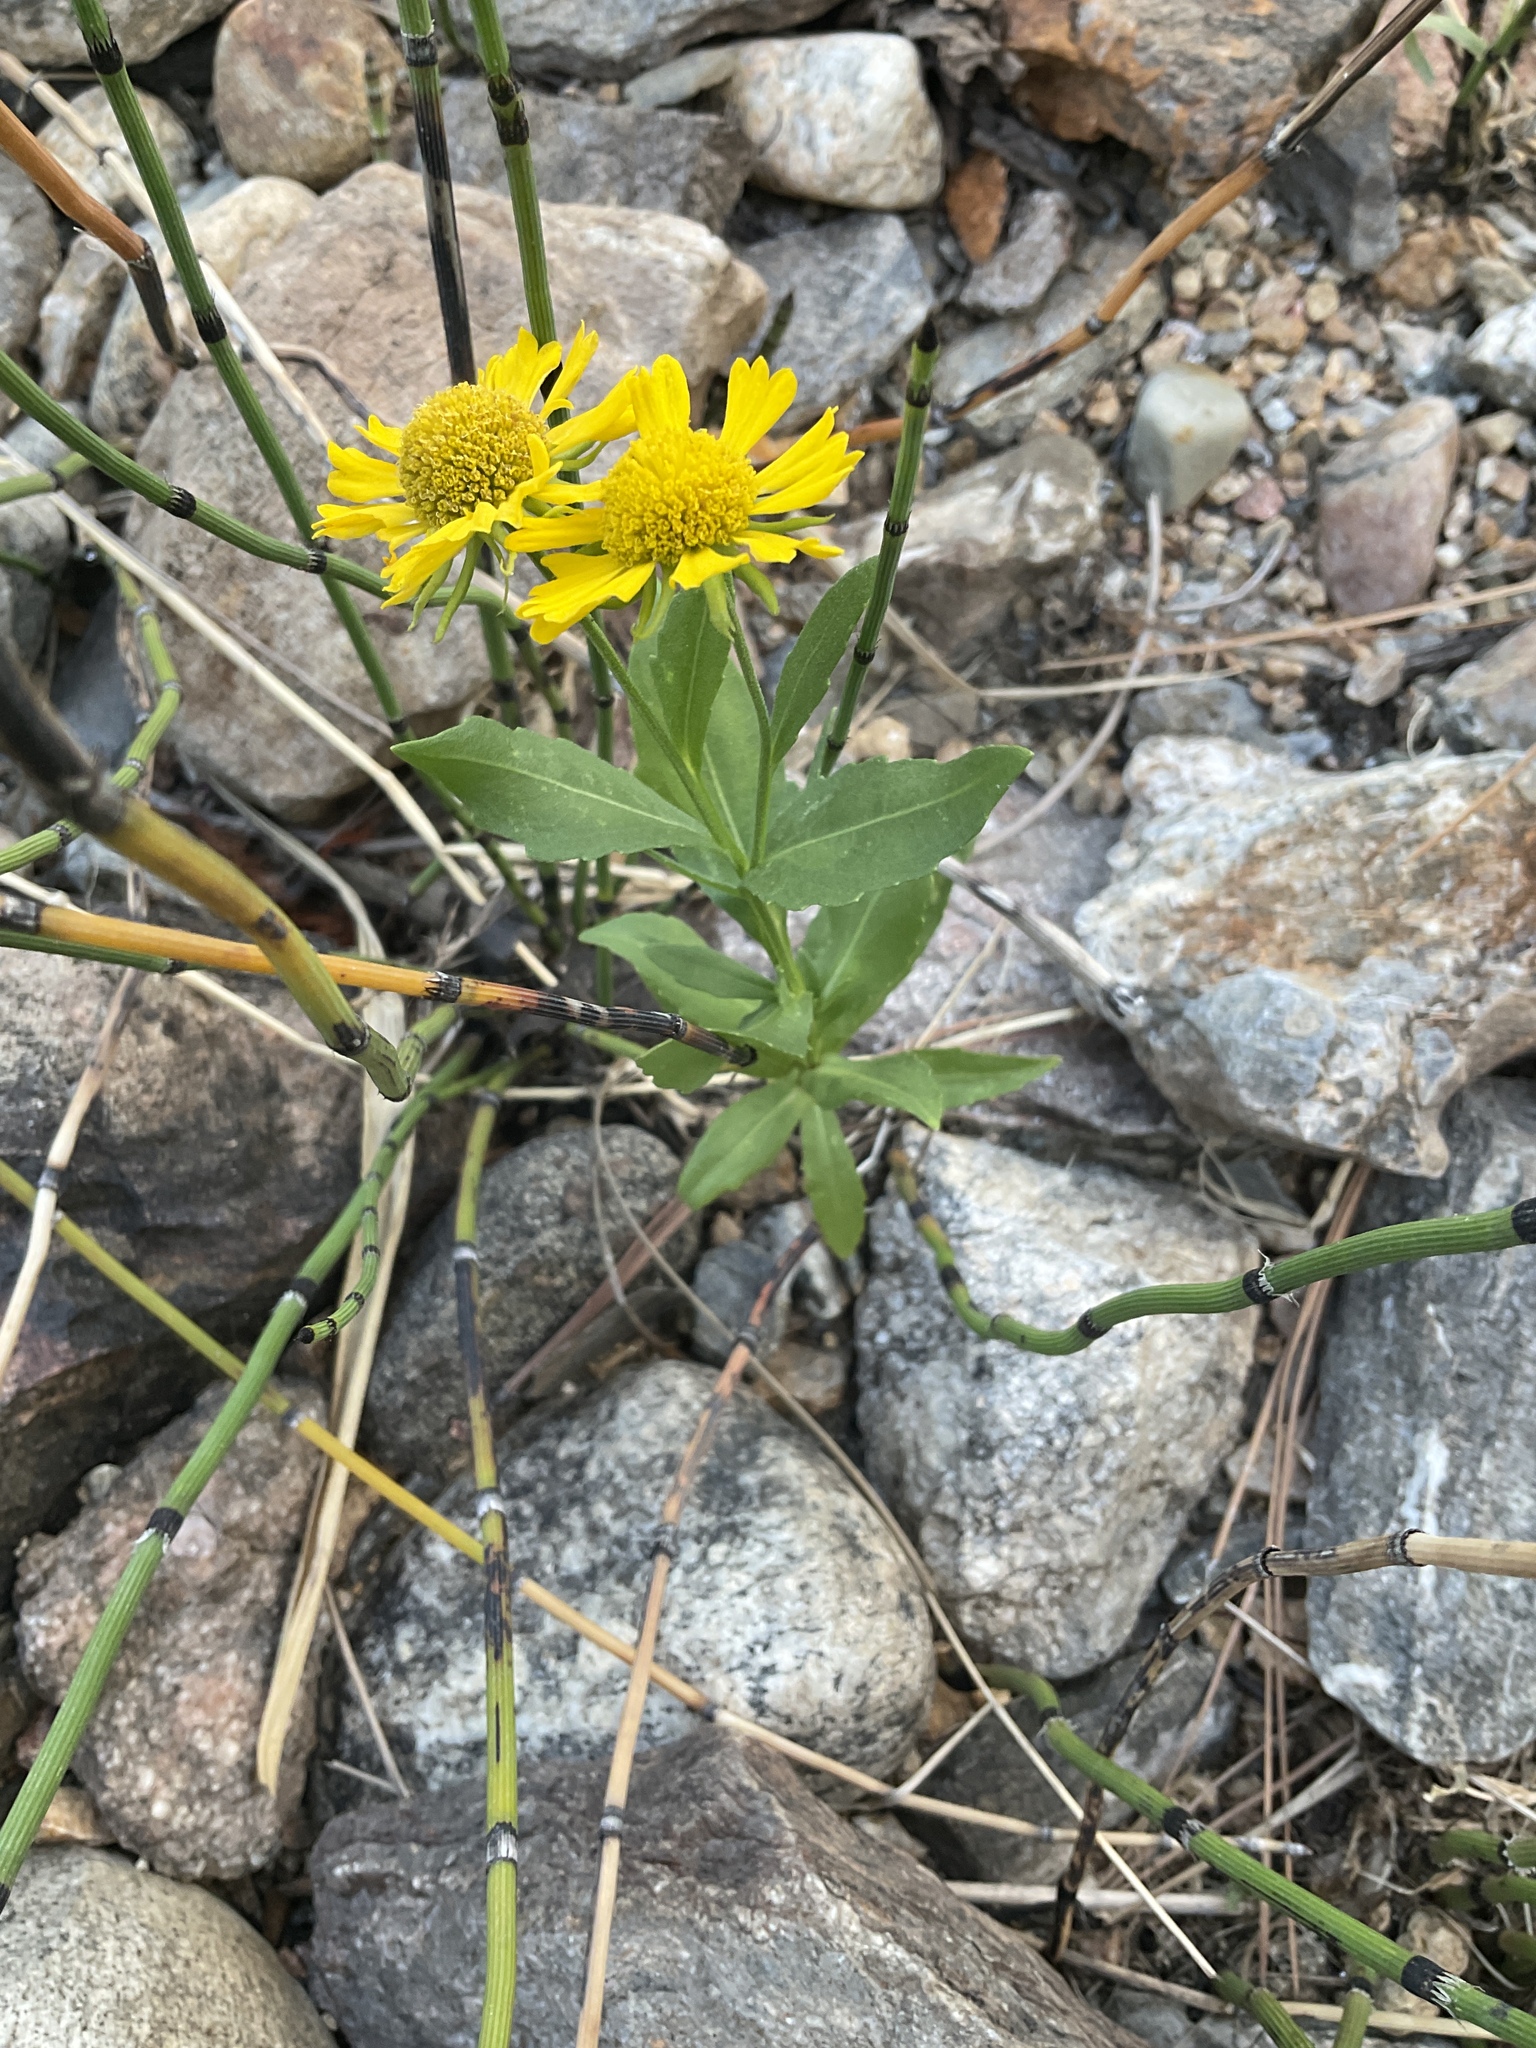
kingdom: Plantae
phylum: Tracheophyta
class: Magnoliopsida
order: Asterales
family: Asteraceae
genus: Helenium
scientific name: Helenium autumnale
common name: Sneezeweed
